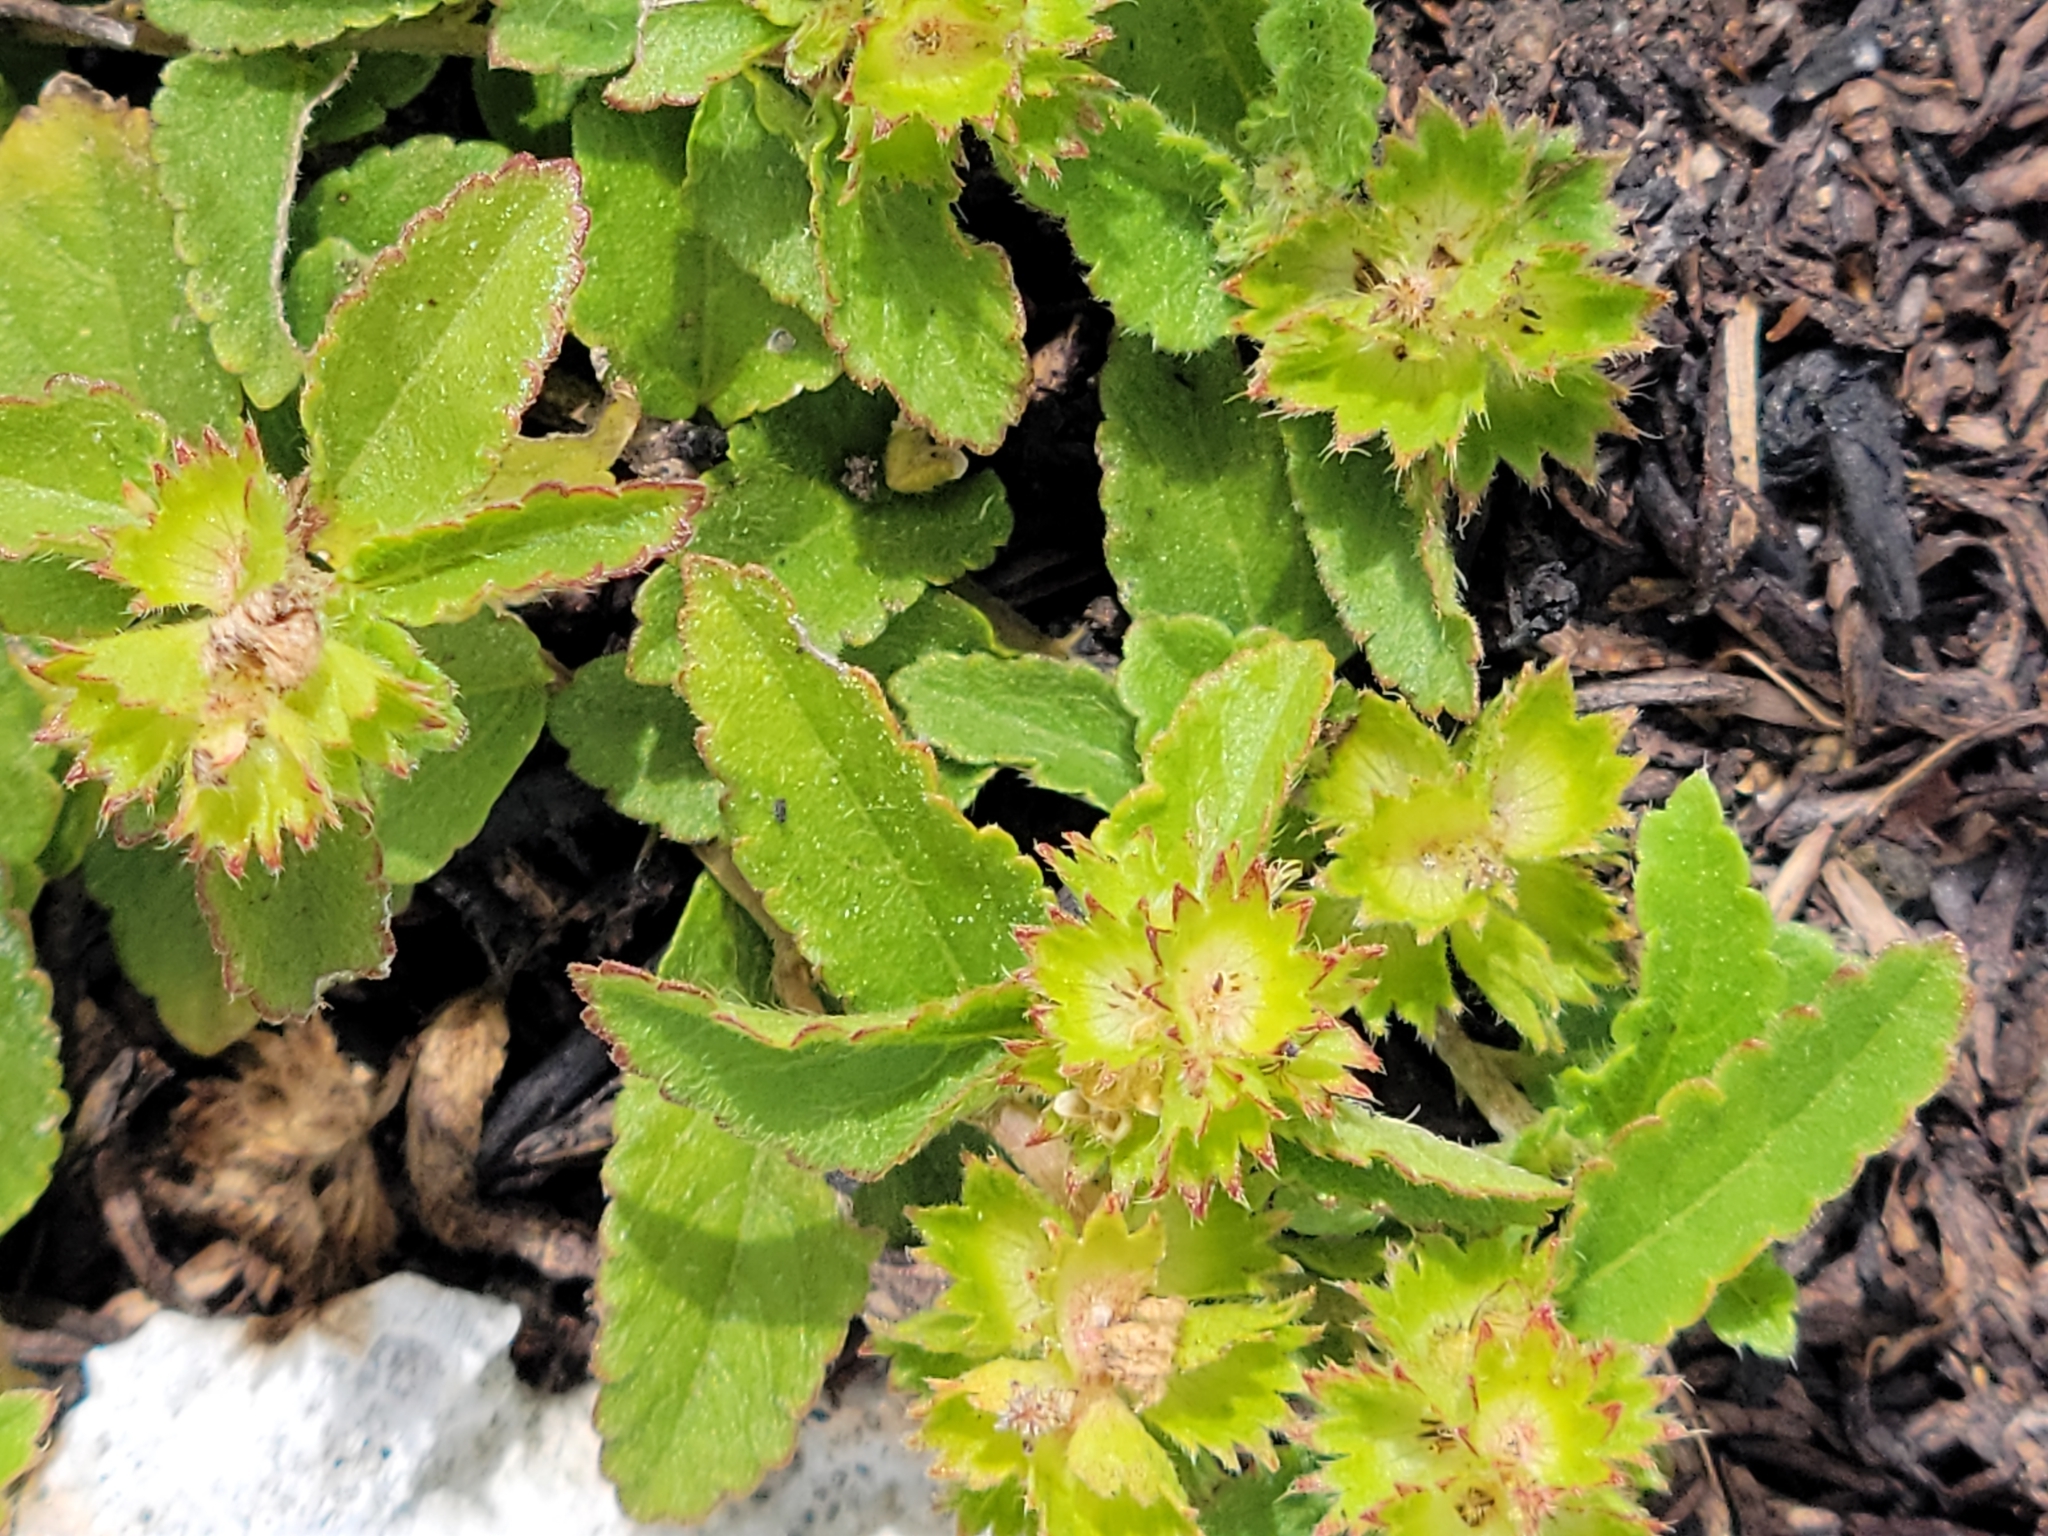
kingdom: Plantae
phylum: Tracheophyta
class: Magnoliopsida
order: Malpighiales
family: Euphorbiaceae
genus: Acalypha
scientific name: Acalypha chamaedrifolia
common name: Bastard copperleaf
